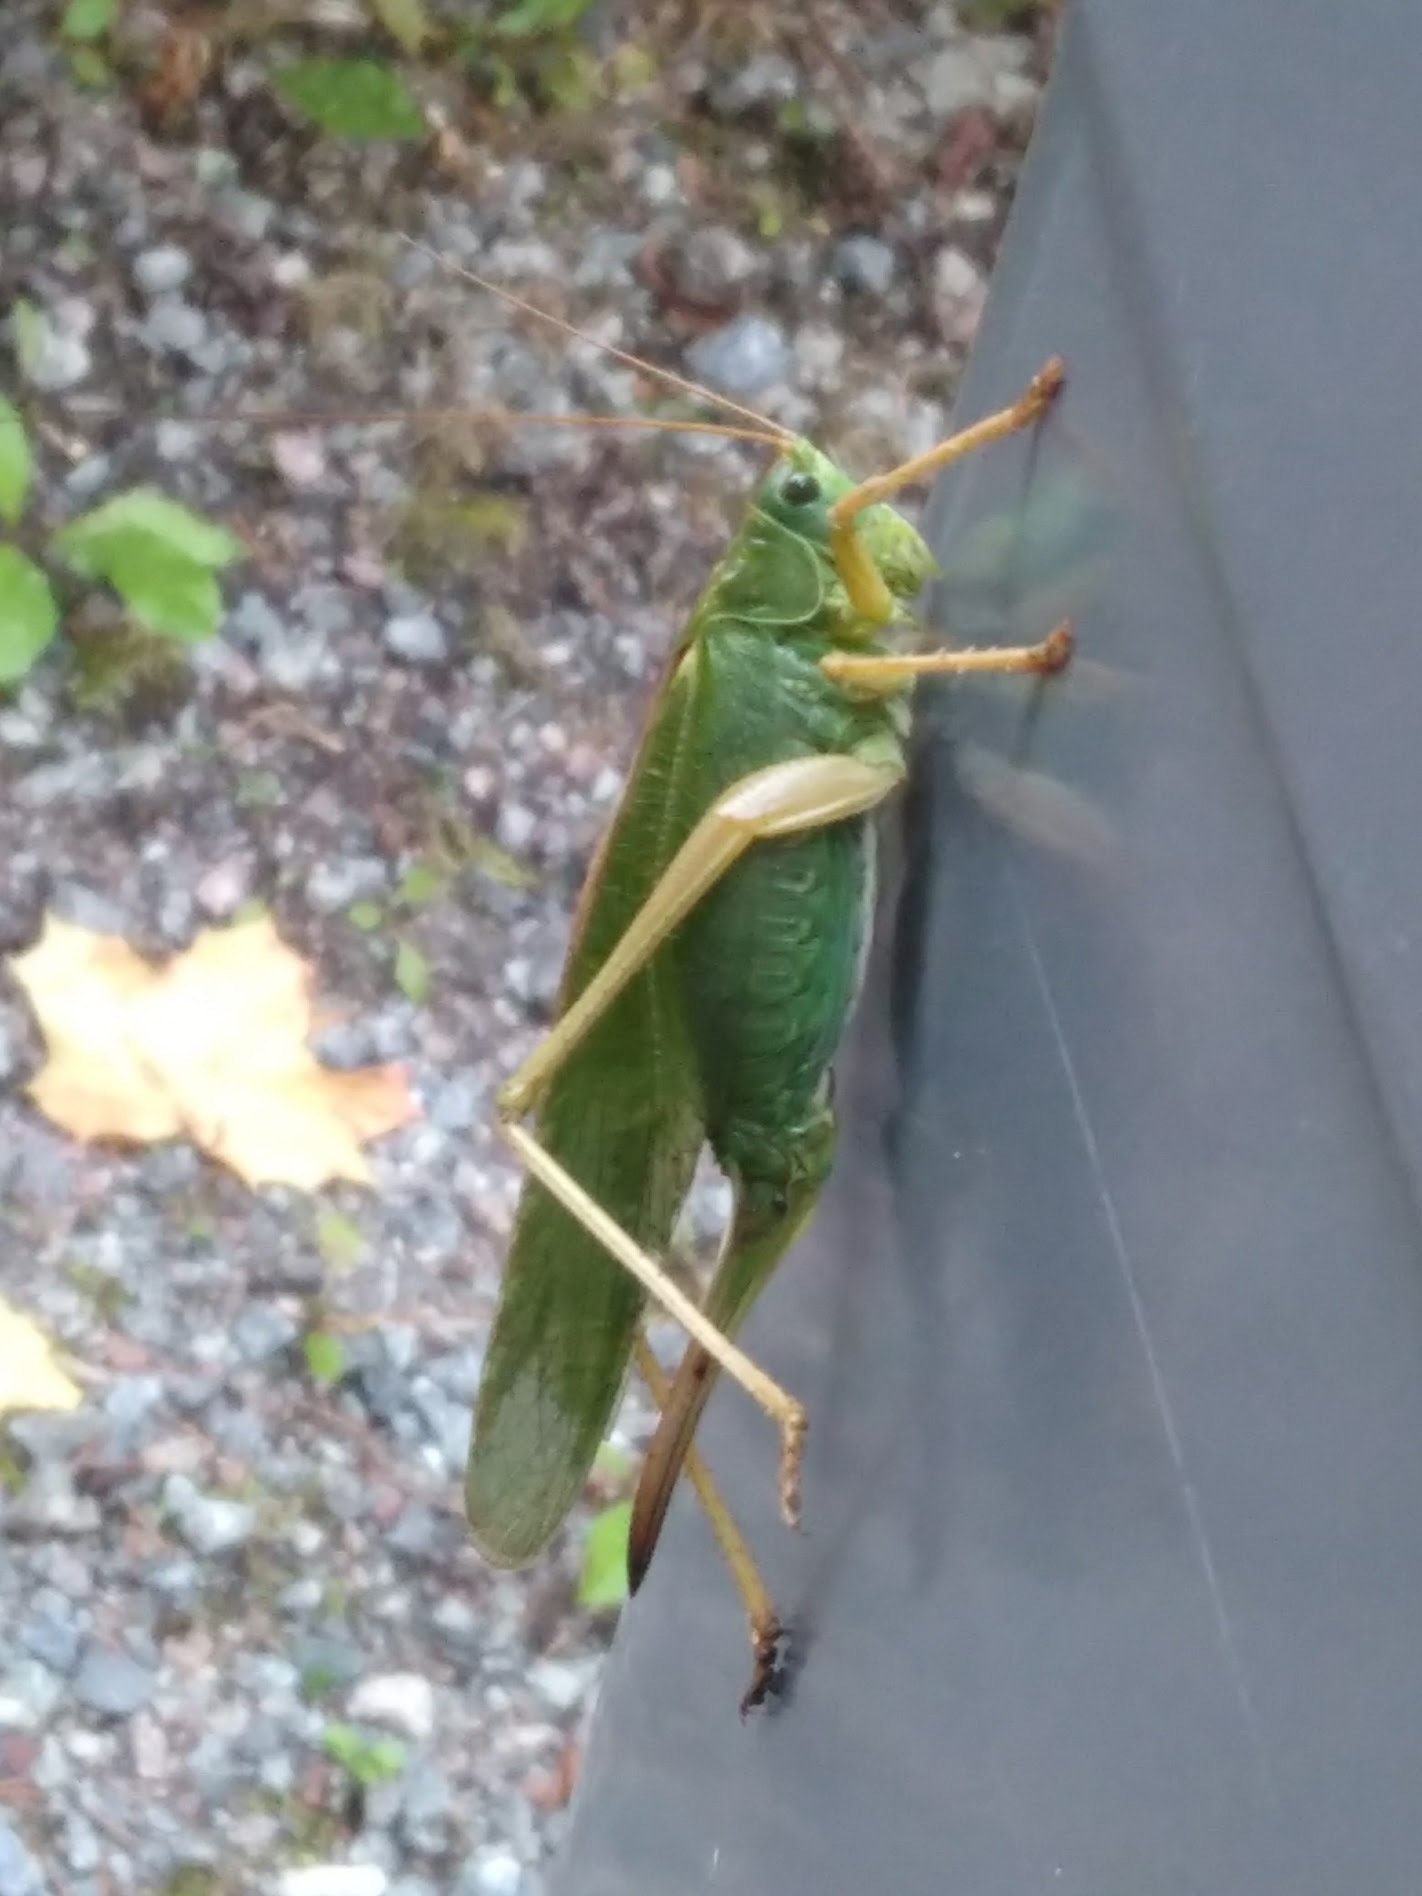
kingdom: Animalia
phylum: Arthropoda
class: Insecta
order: Orthoptera
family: Tettigoniidae
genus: Tettigonia
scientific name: Tettigonia viridissima
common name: Great green bush-cricket
